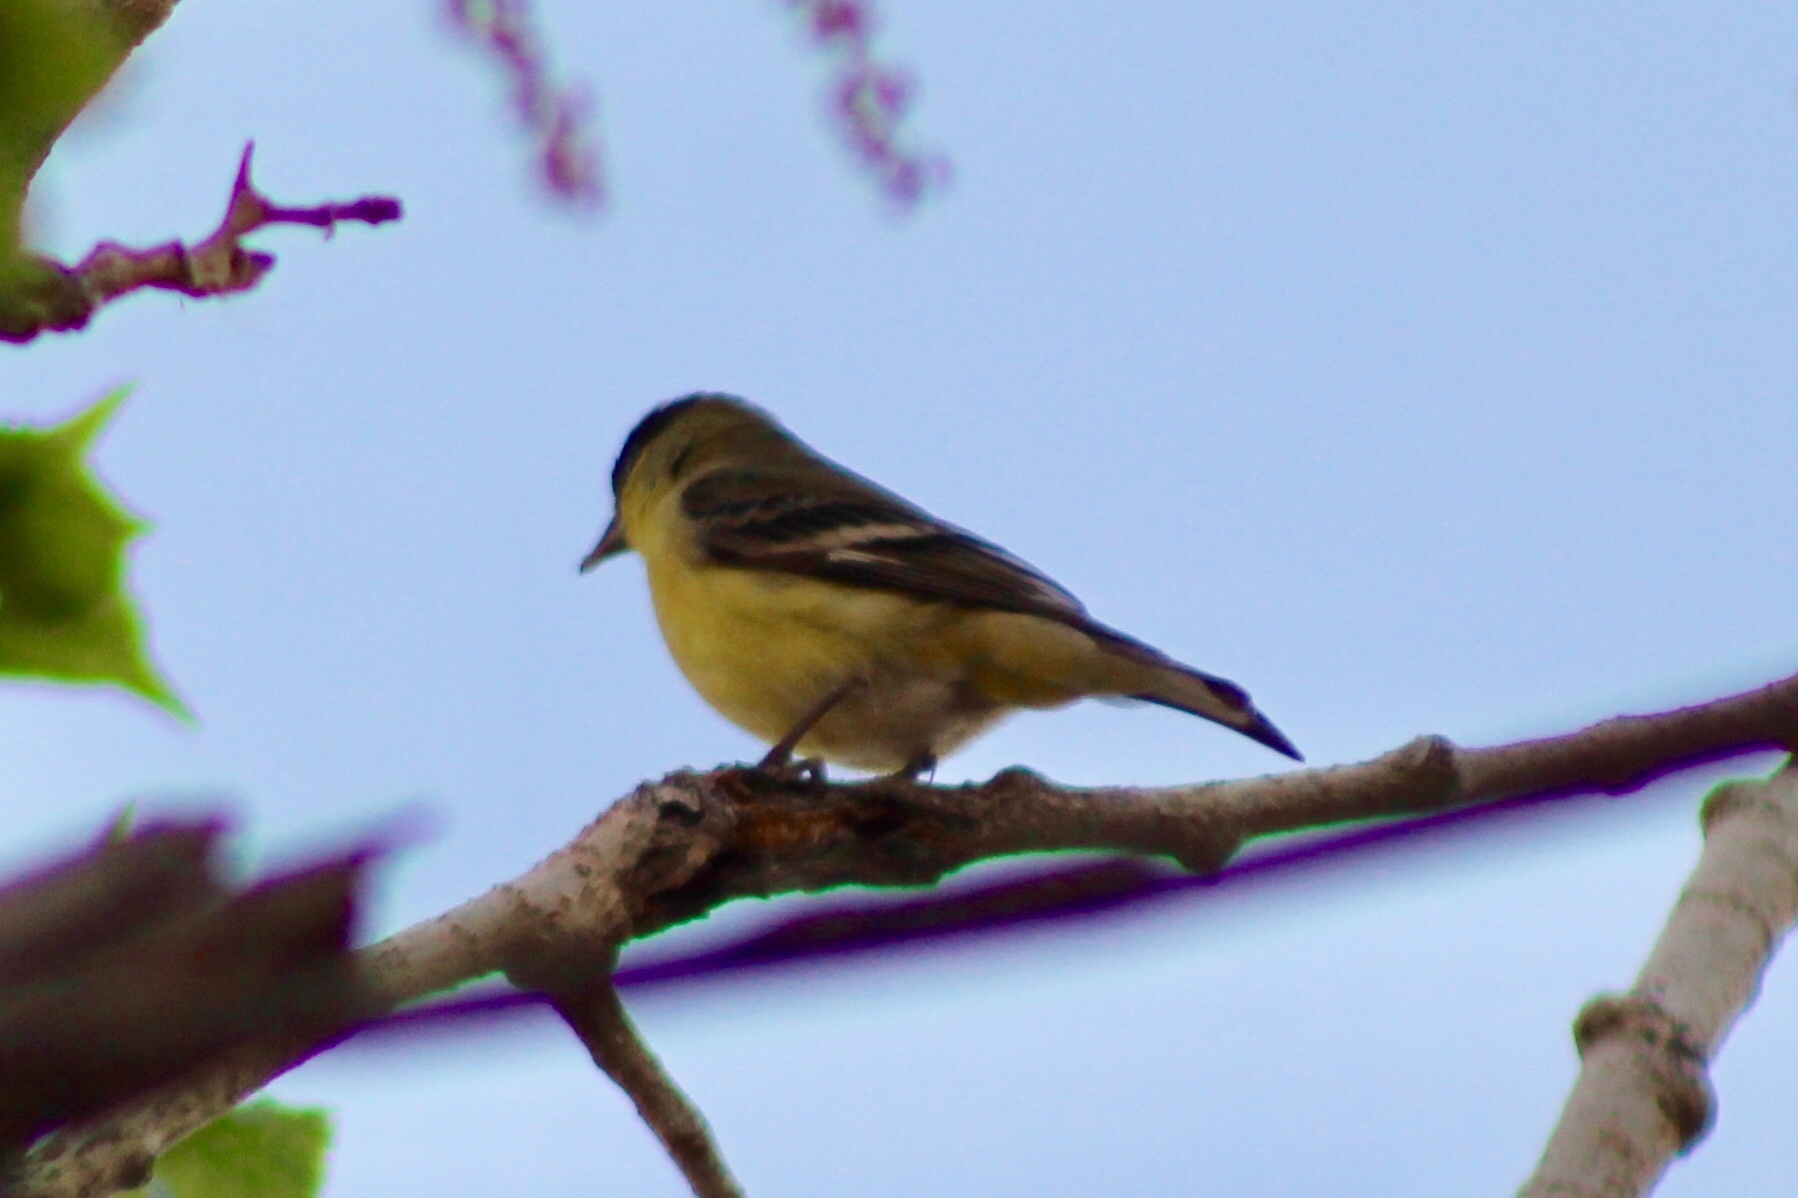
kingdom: Animalia
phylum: Chordata
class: Aves
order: Passeriformes
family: Fringillidae
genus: Spinus
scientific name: Spinus psaltria
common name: Lesser goldfinch
